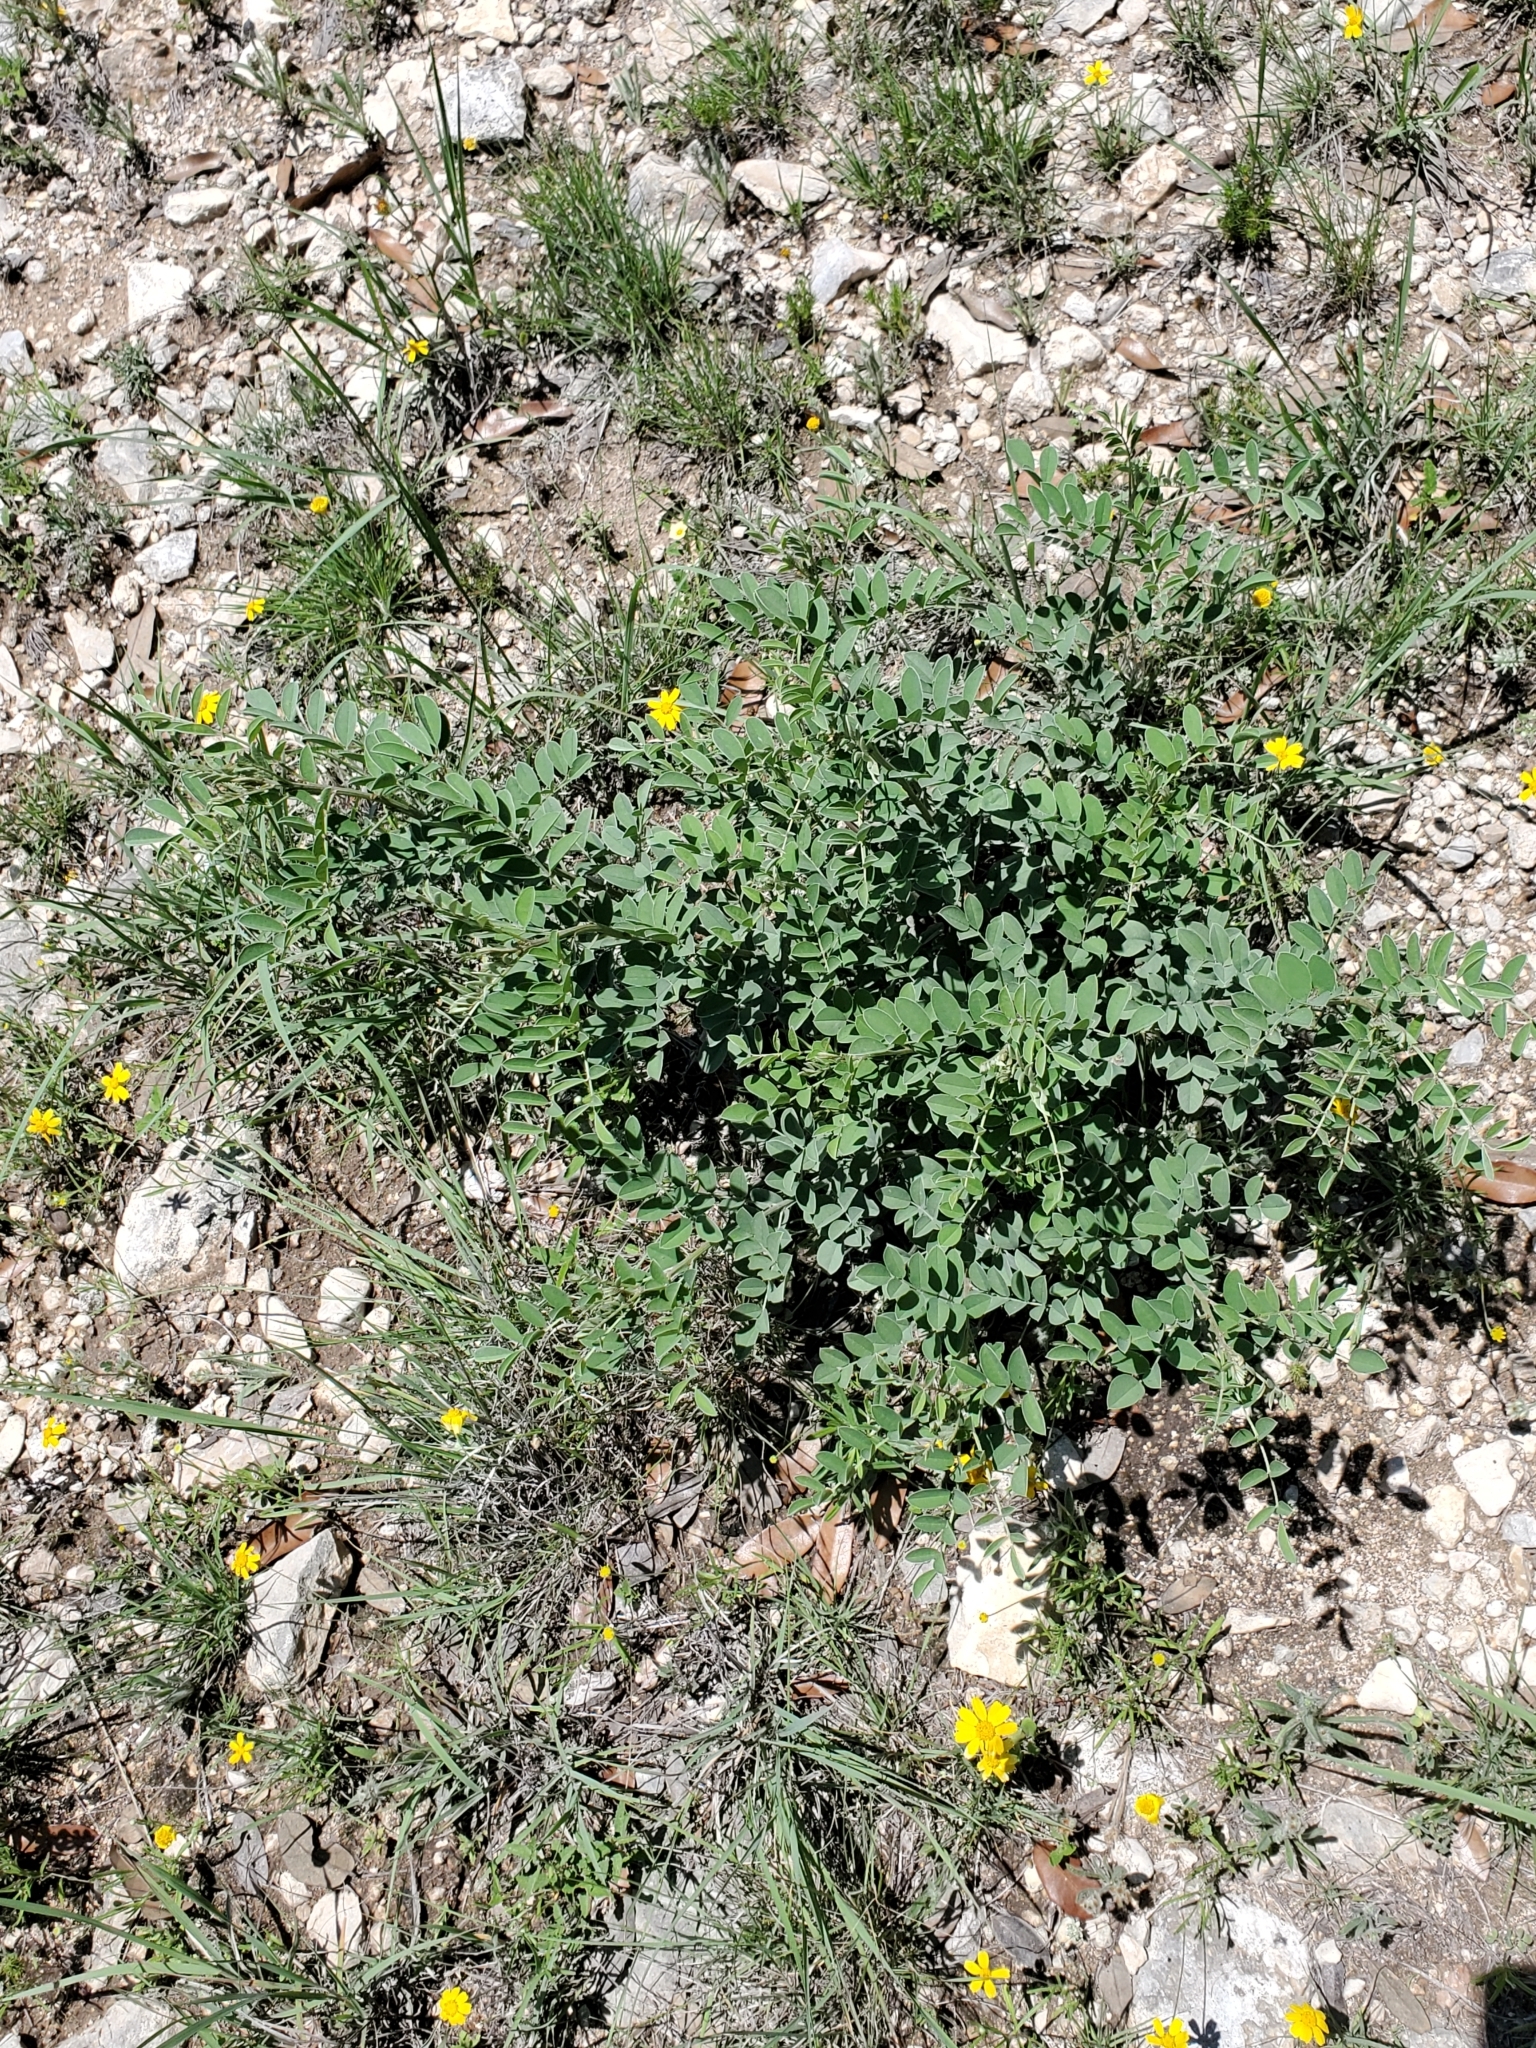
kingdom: Plantae
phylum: Tracheophyta
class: Magnoliopsida
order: Fabales
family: Fabaceae
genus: Indigofera
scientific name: Indigofera lindheimeriana
